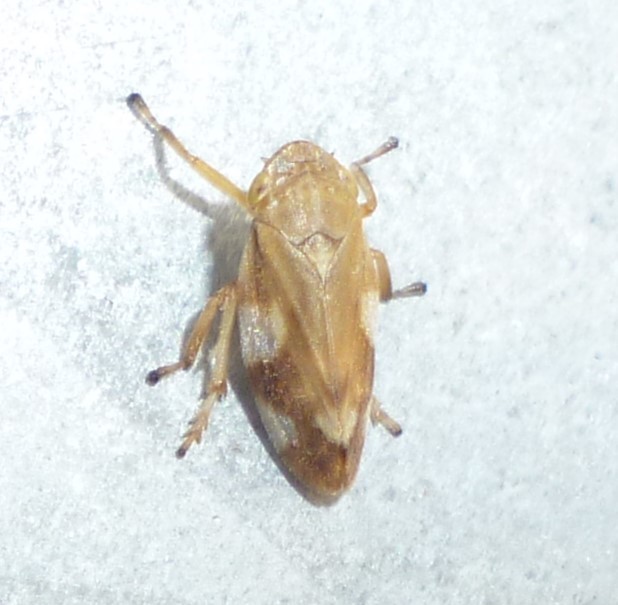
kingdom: Animalia
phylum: Arthropoda
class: Insecta
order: Hemiptera
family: Aphrophoridae
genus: Philaenus
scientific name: Philaenus spumarius
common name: Meadow spittlebug
